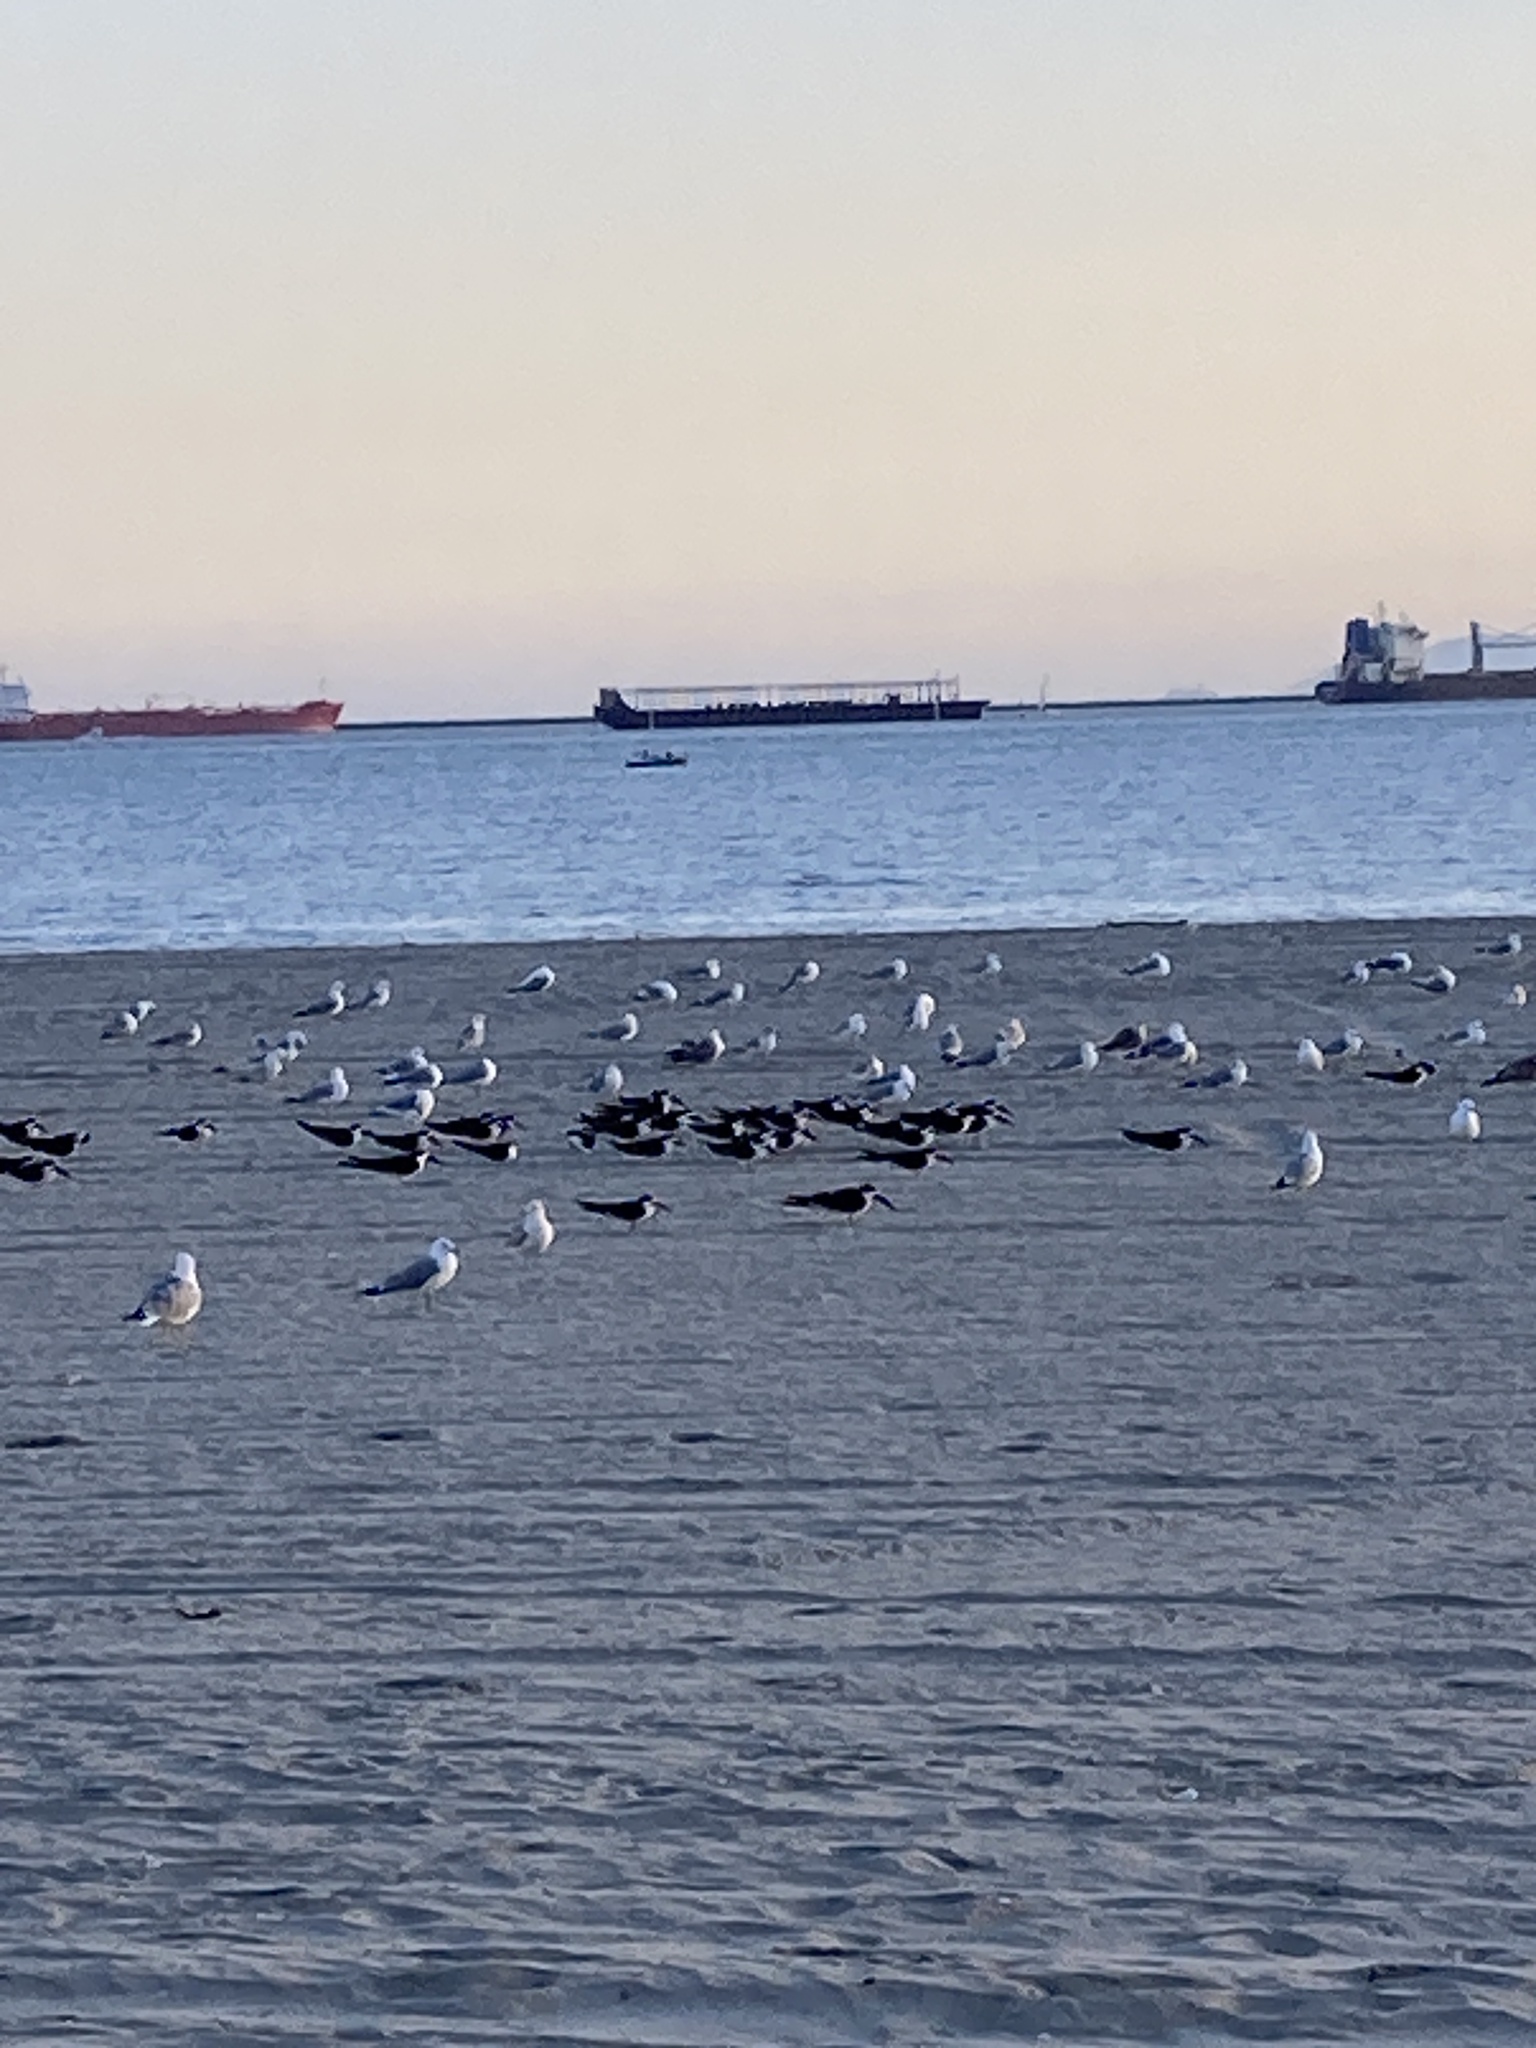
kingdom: Animalia
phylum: Chordata
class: Aves
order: Charadriiformes
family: Laridae
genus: Rynchops
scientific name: Rynchops niger
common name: Black skimmer
